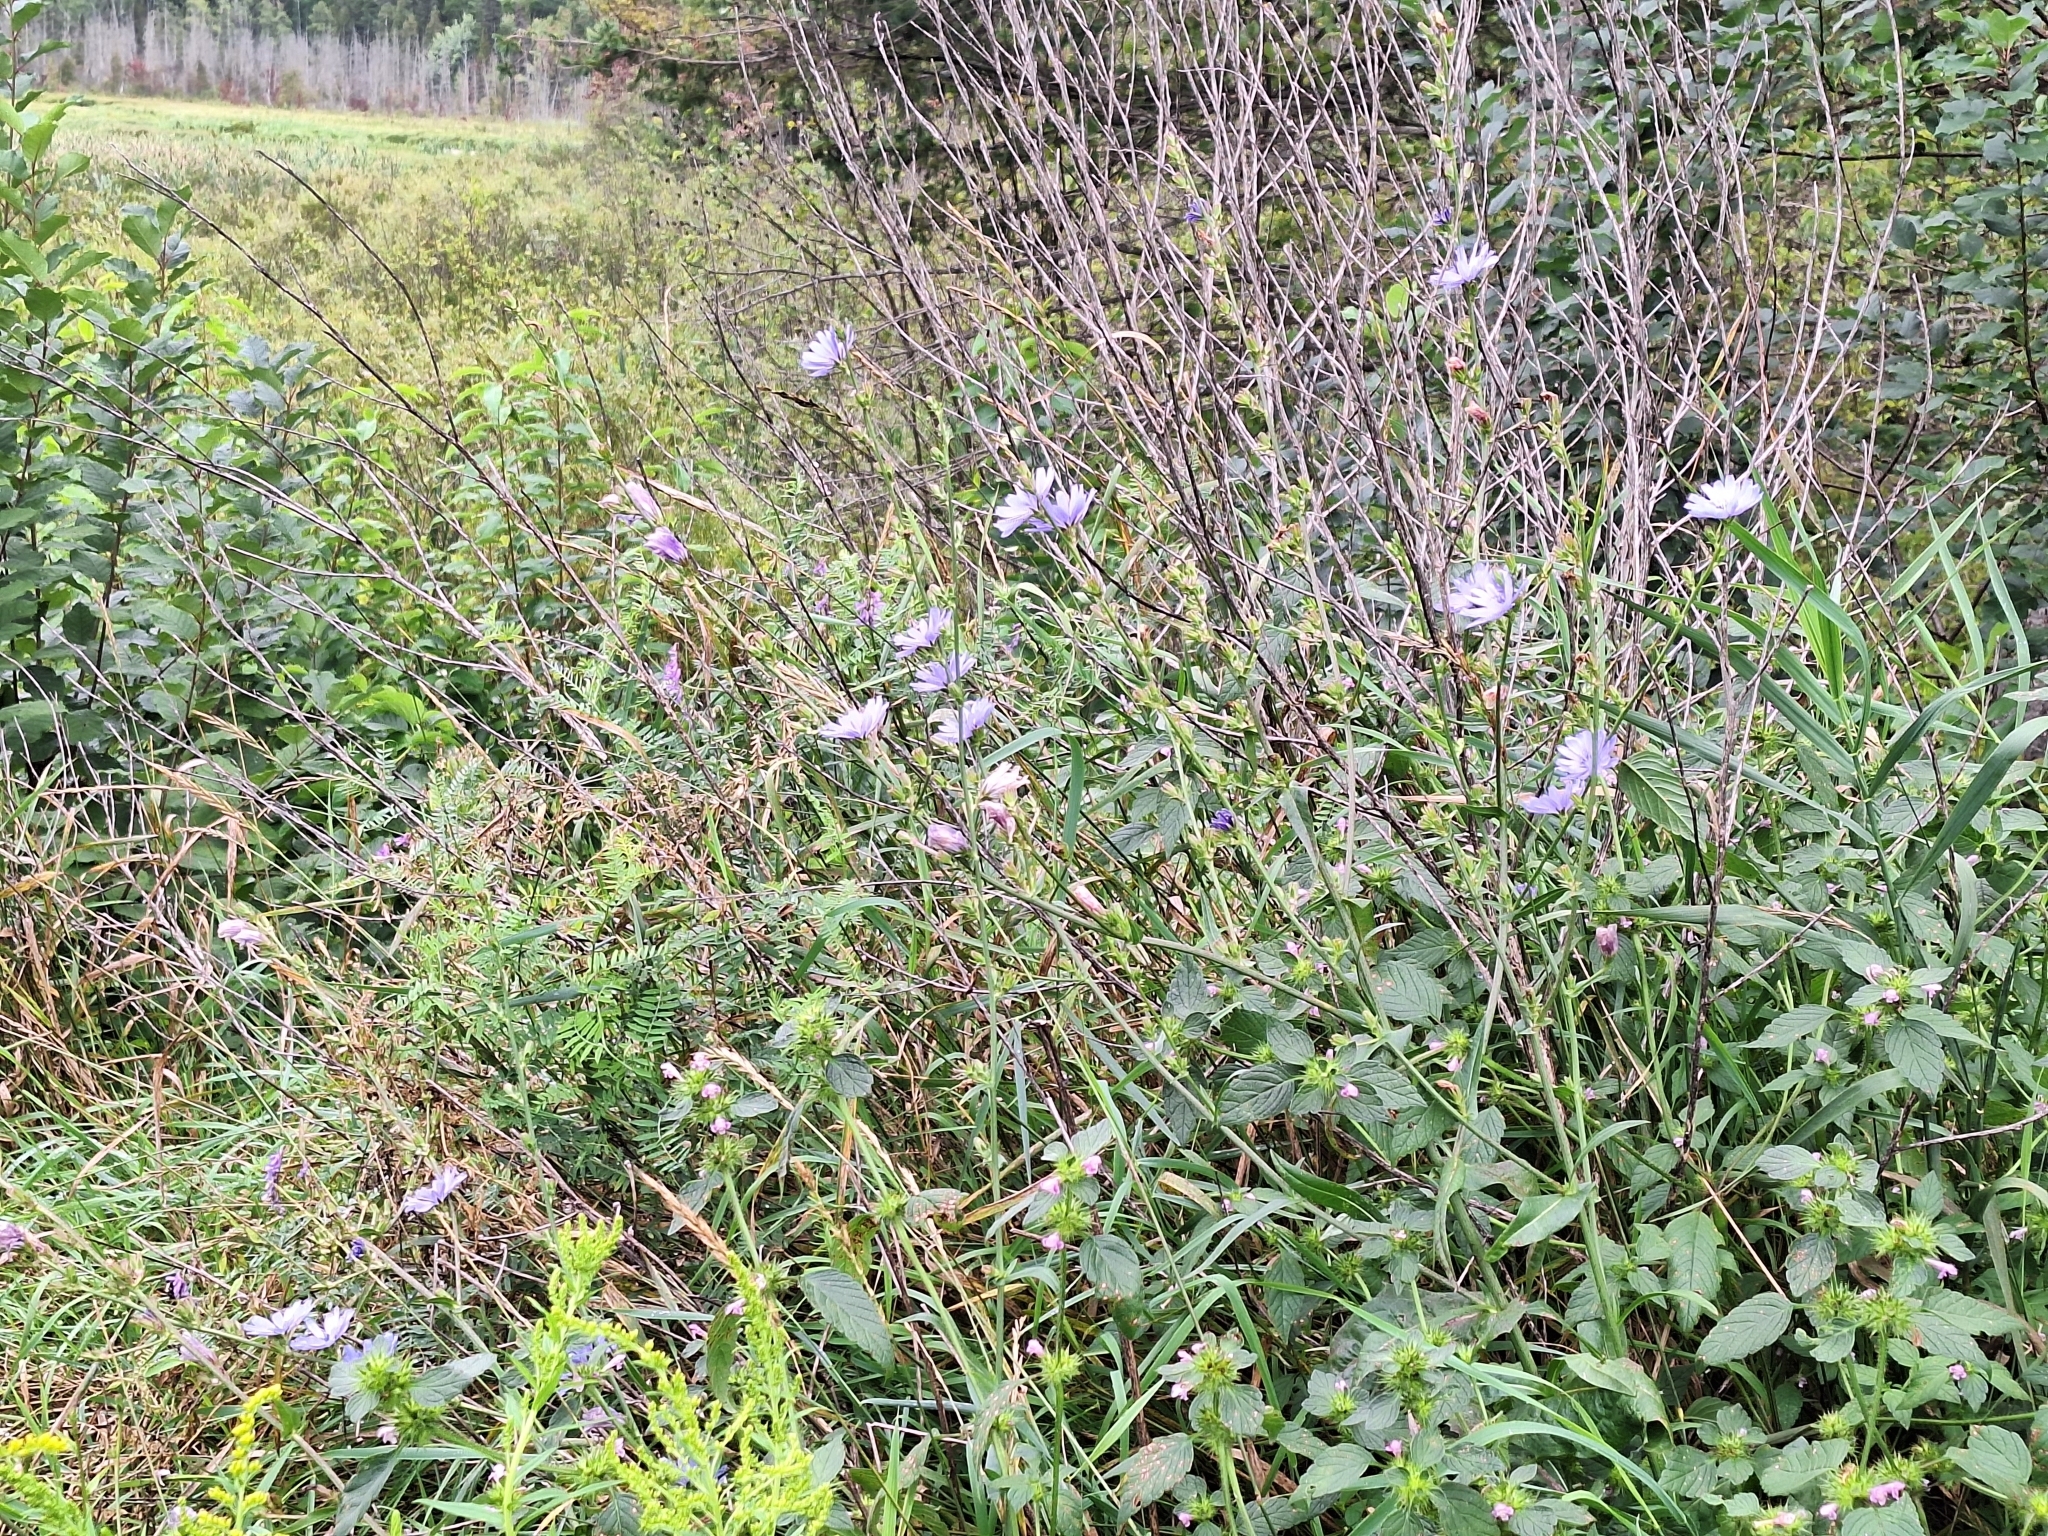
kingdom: Plantae
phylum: Tracheophyta
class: Magnoliopsida
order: Asterales
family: Asteraceae
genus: Cichorium
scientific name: Cichorium intybus
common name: Chicory
